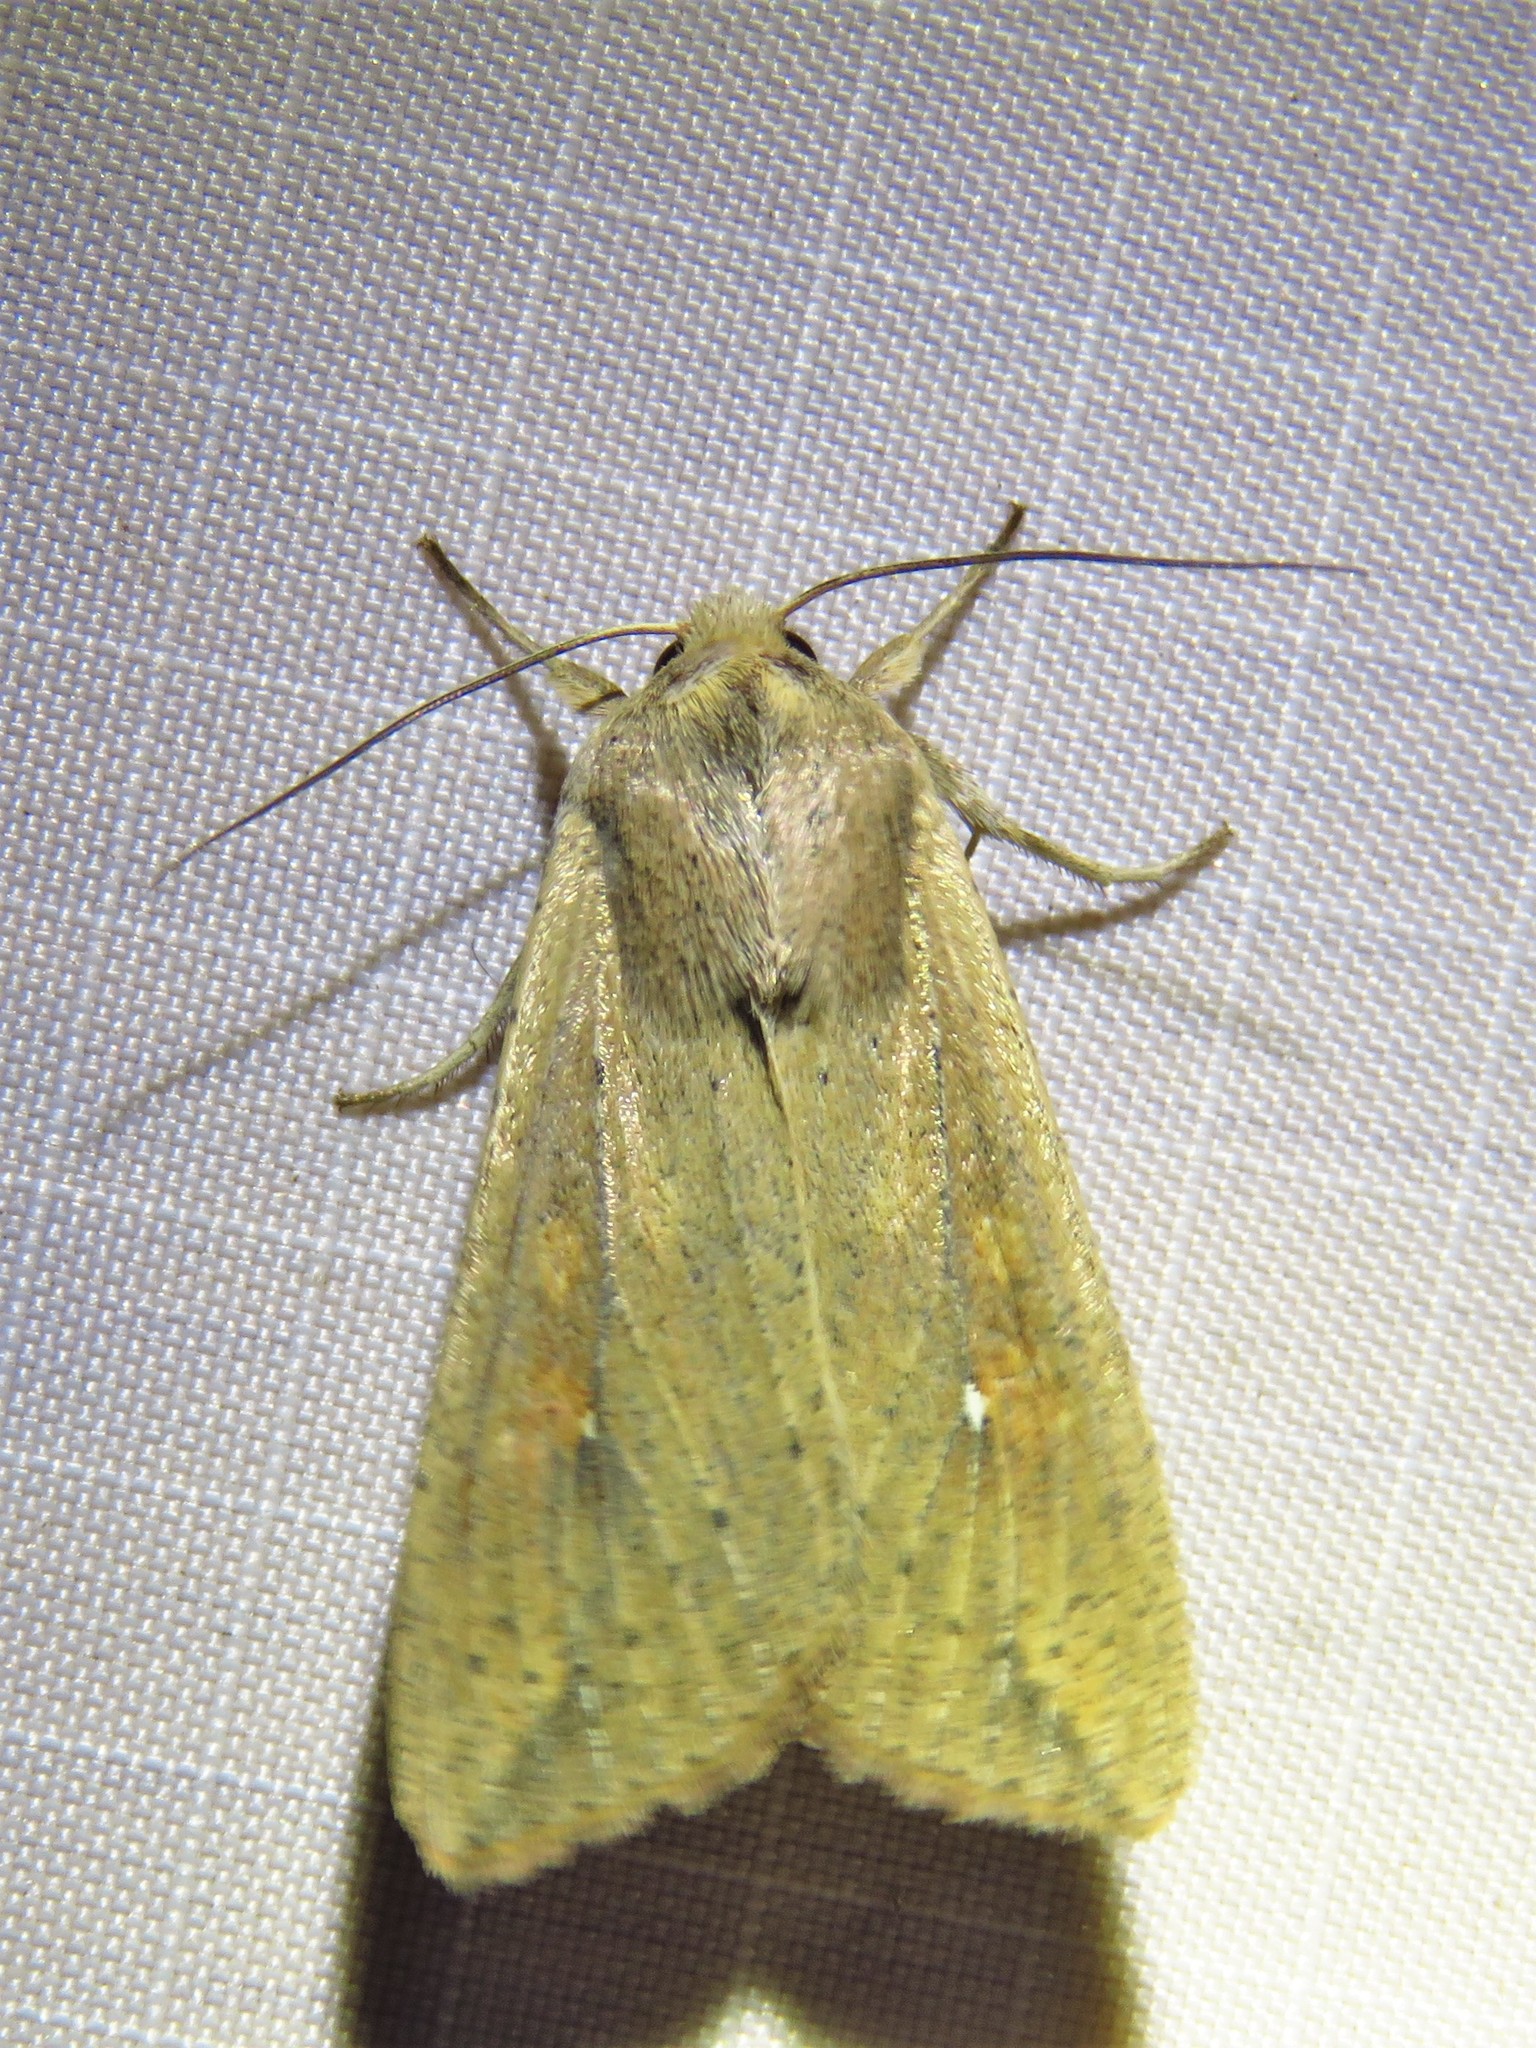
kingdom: Animalia
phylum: Arthropoda
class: Insecta
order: Lepidoptera
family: Noctuidae
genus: Mythimna
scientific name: Mythimna unipuncta
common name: White-speck
